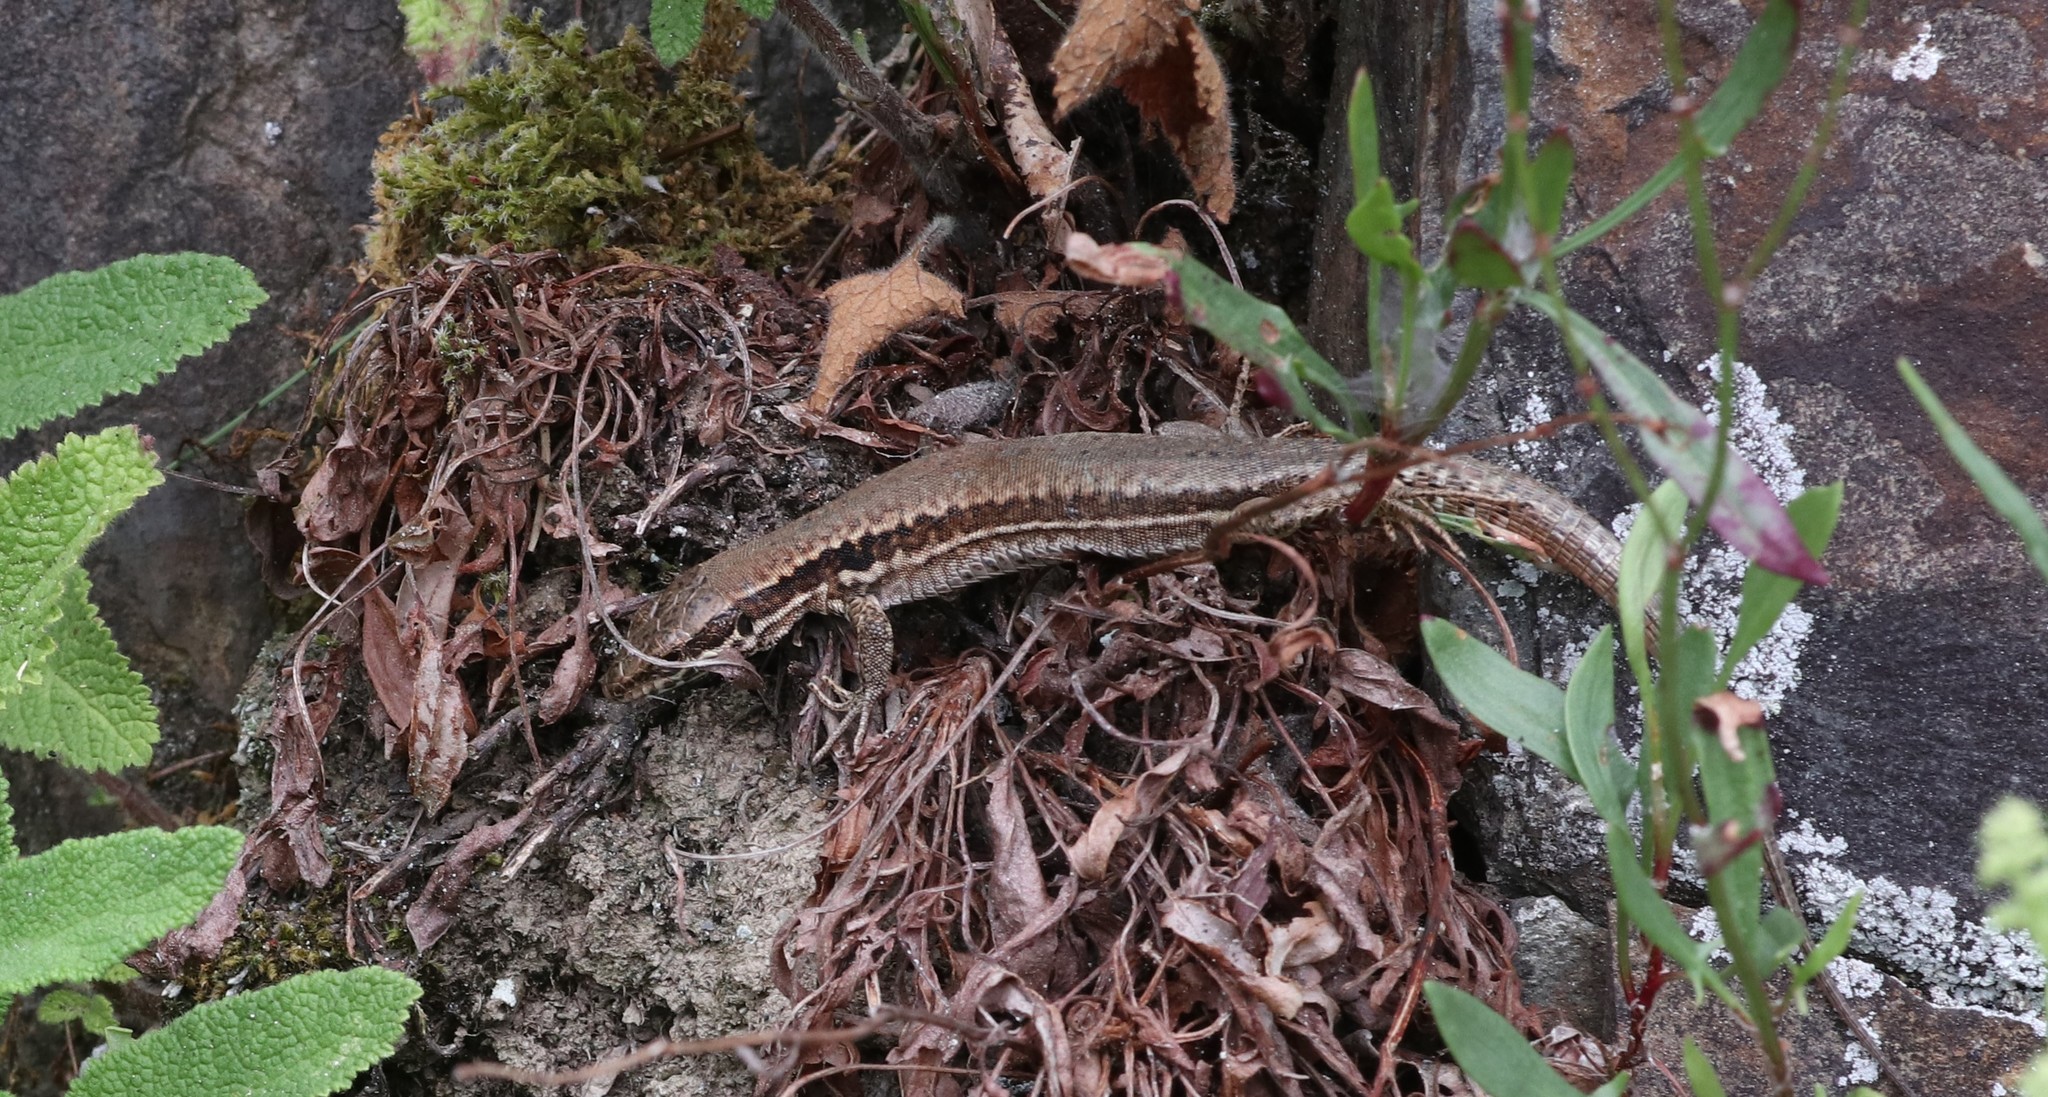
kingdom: Animalia
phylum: Chordata
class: Squamata
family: Lacertidae
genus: Podarcis
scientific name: Podarcis muralis
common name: Common wall lizard
